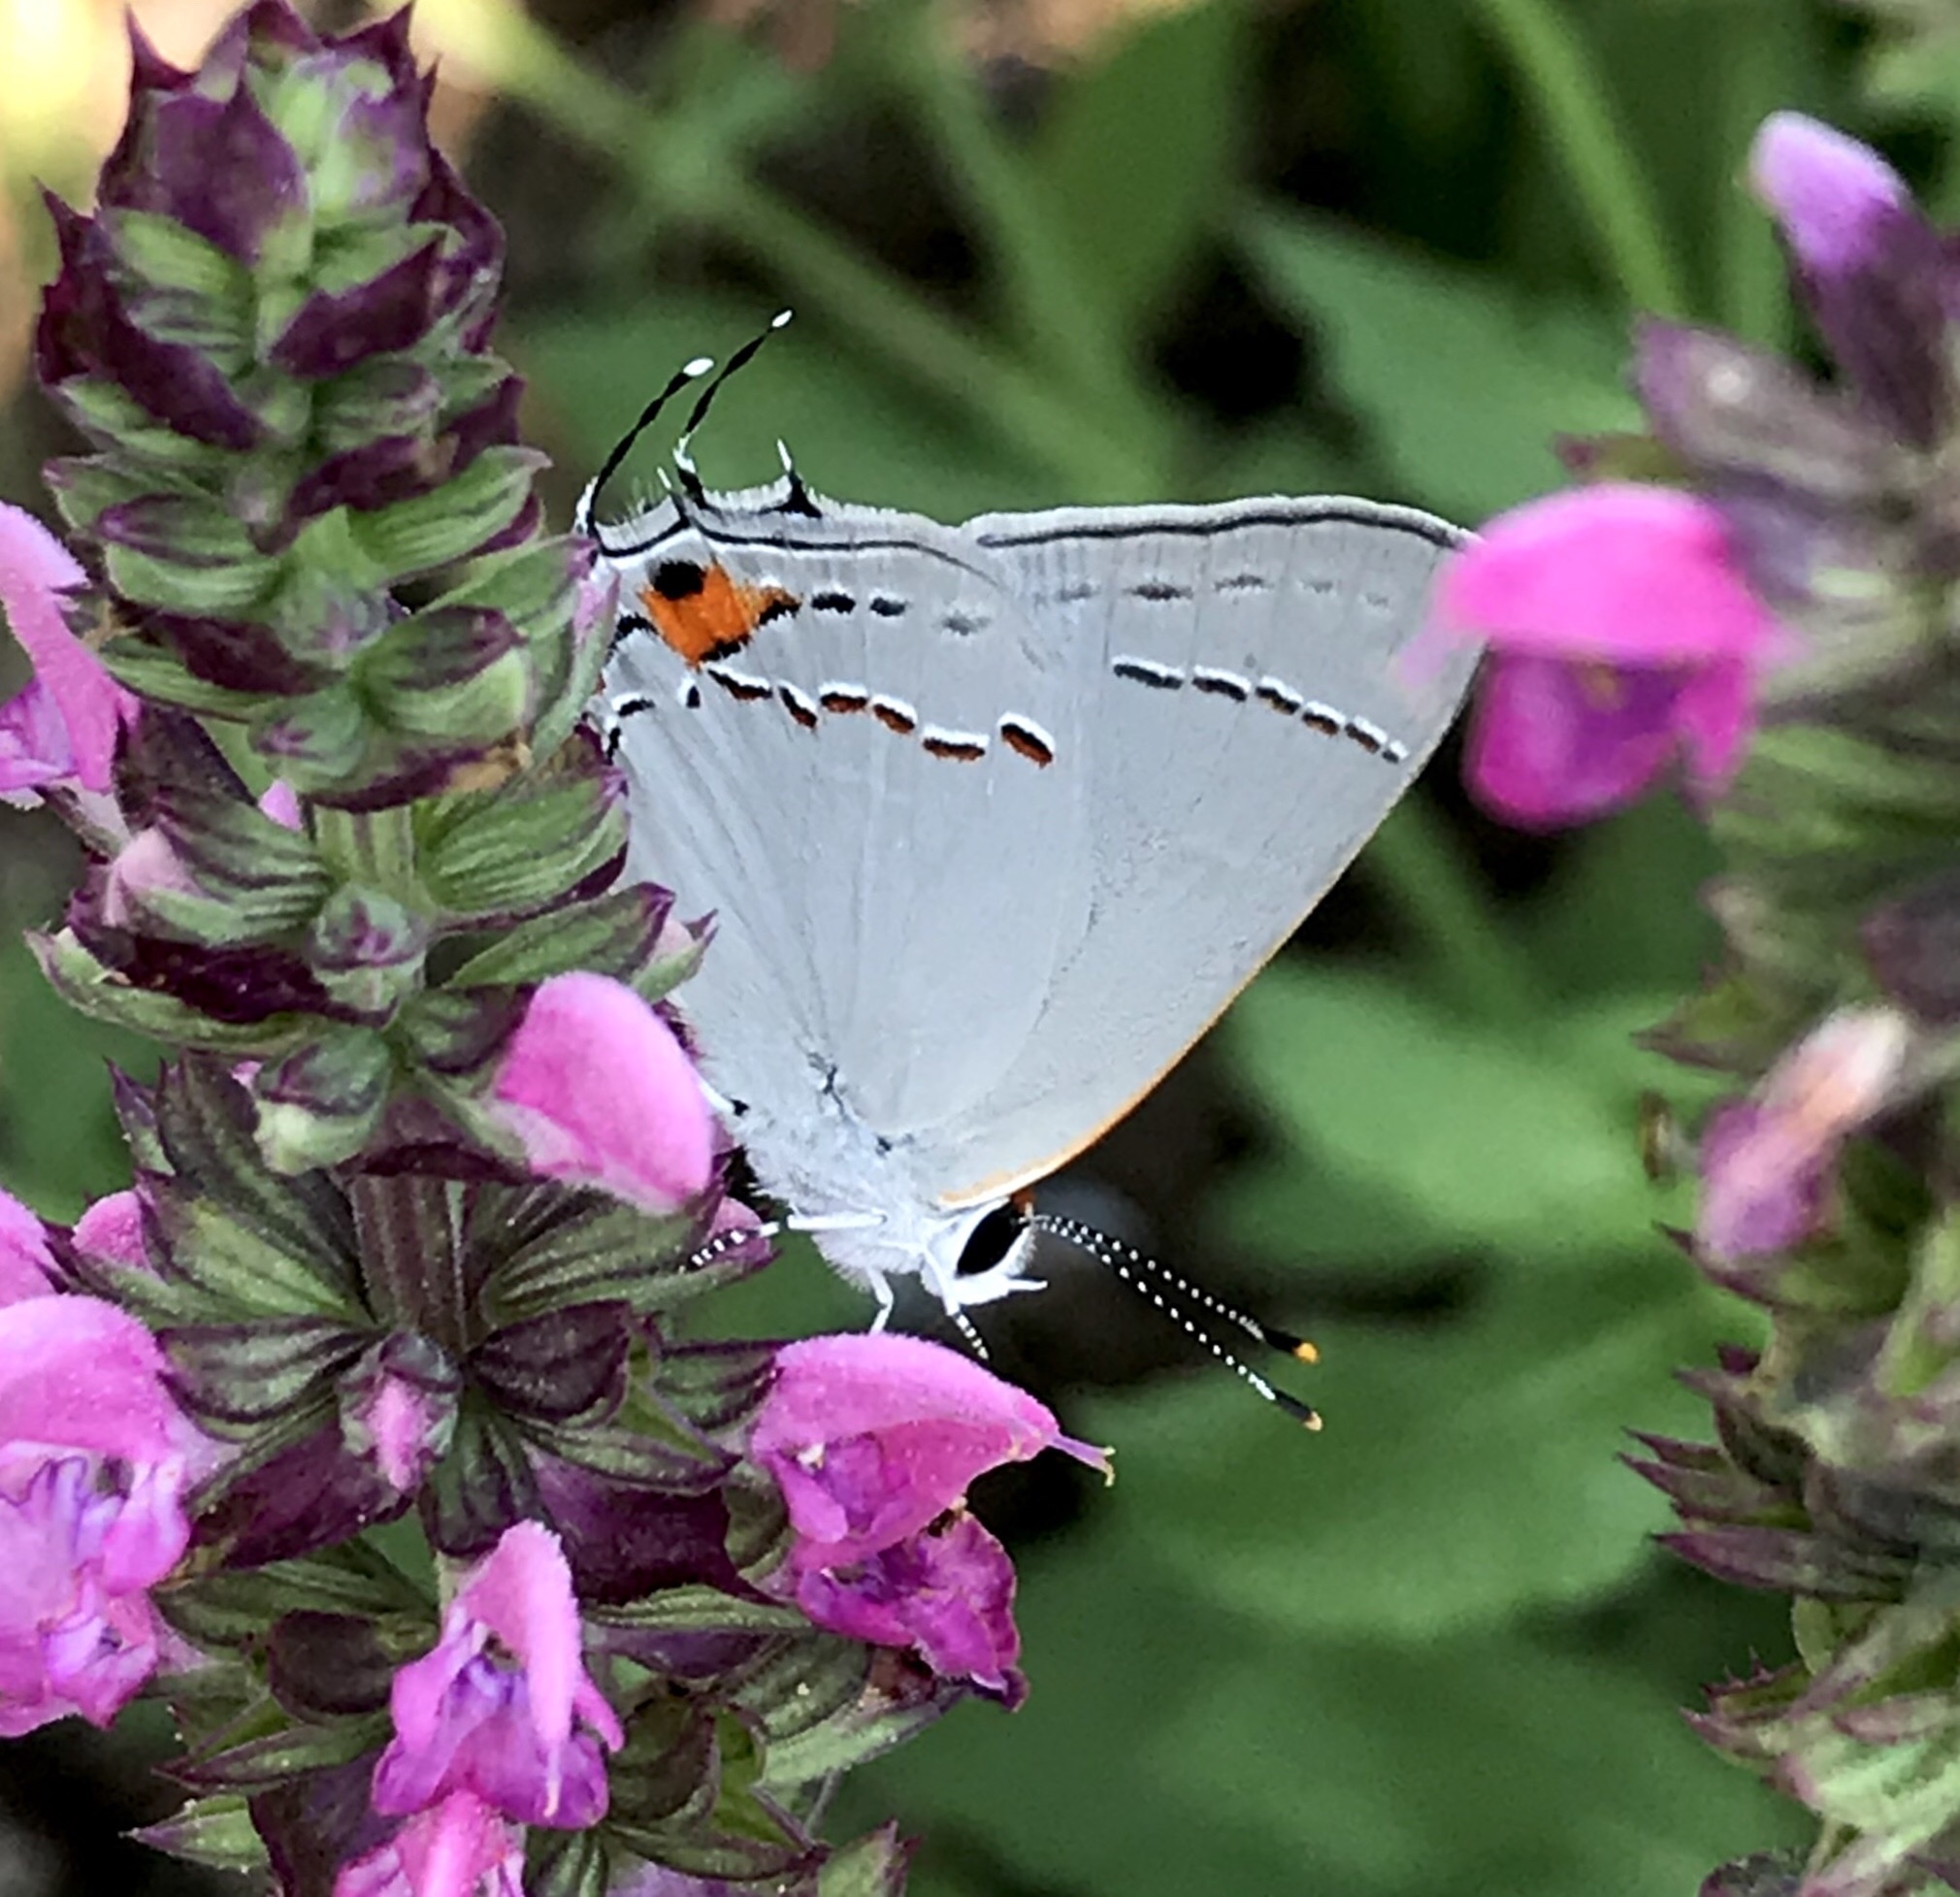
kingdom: Animalia
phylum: Arthropoda
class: Insecta
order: Lepidoptera
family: Lycaenidae
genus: Strymon
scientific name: Strymon melinus
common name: Gray hairstreak
